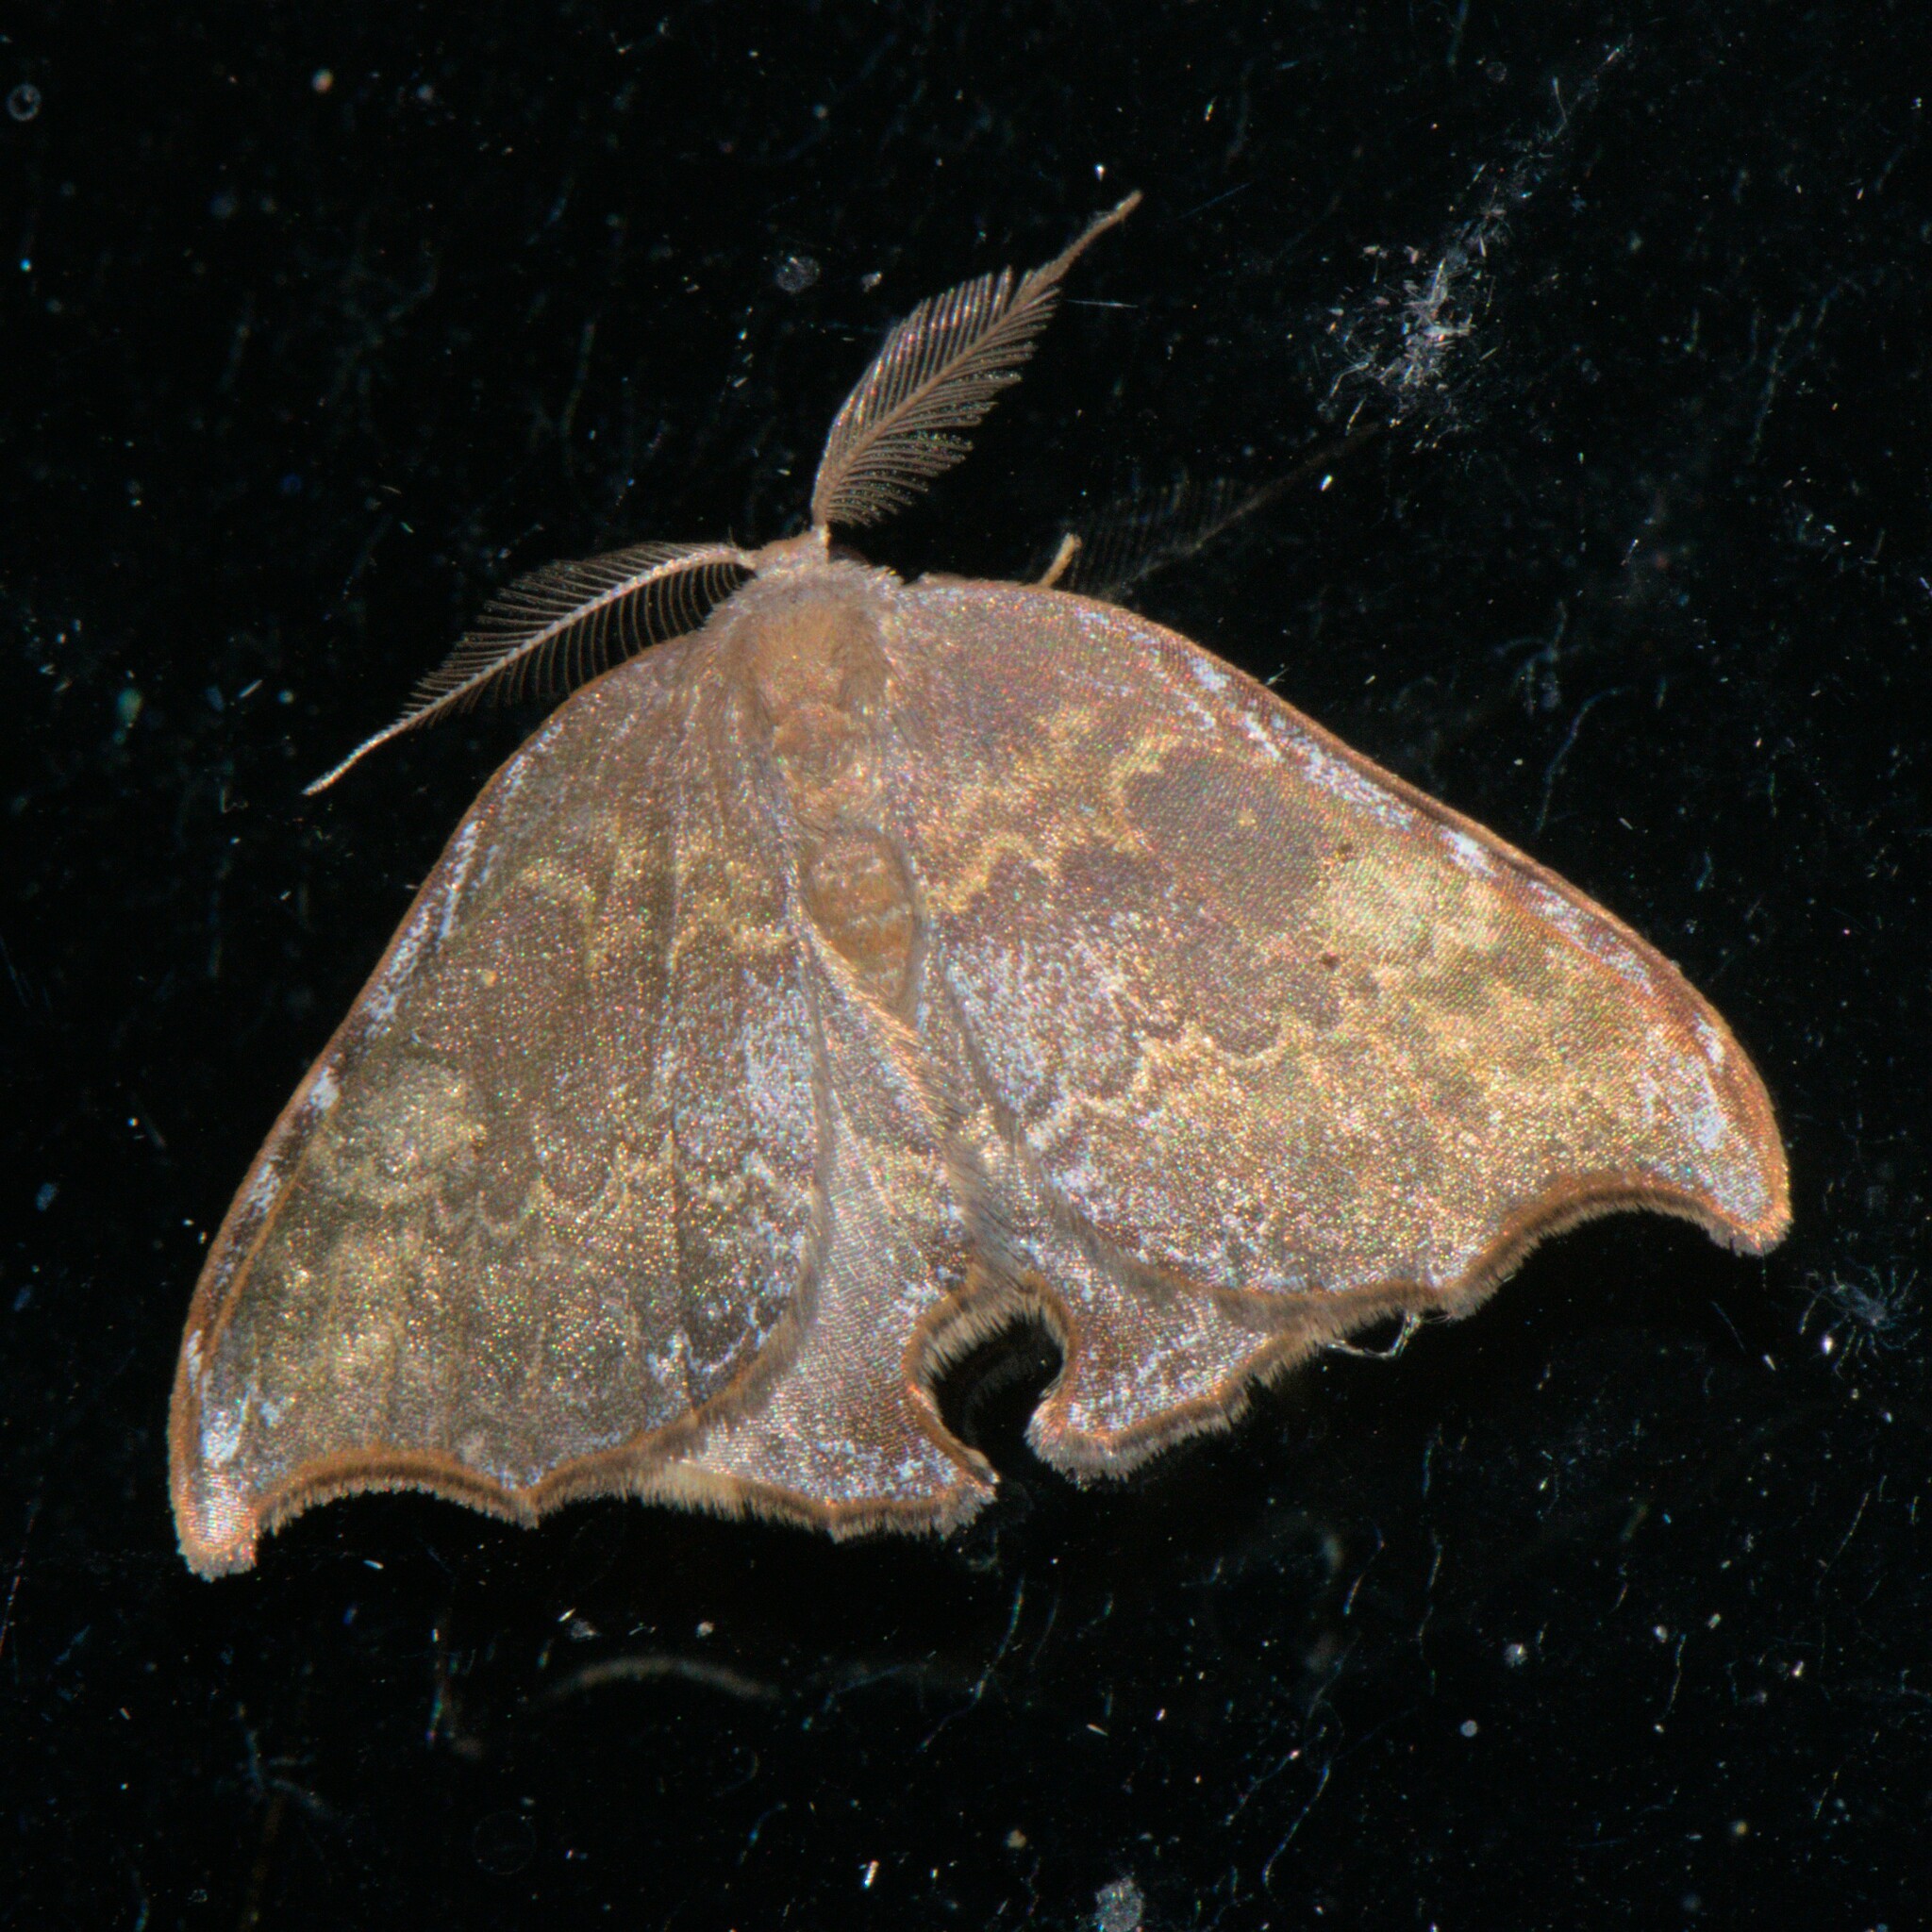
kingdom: Animalia
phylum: Arthropoda
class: Insecta
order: Lepidoptera
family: Drepanidae
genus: Thymistada
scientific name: Thymistada tripunctata
